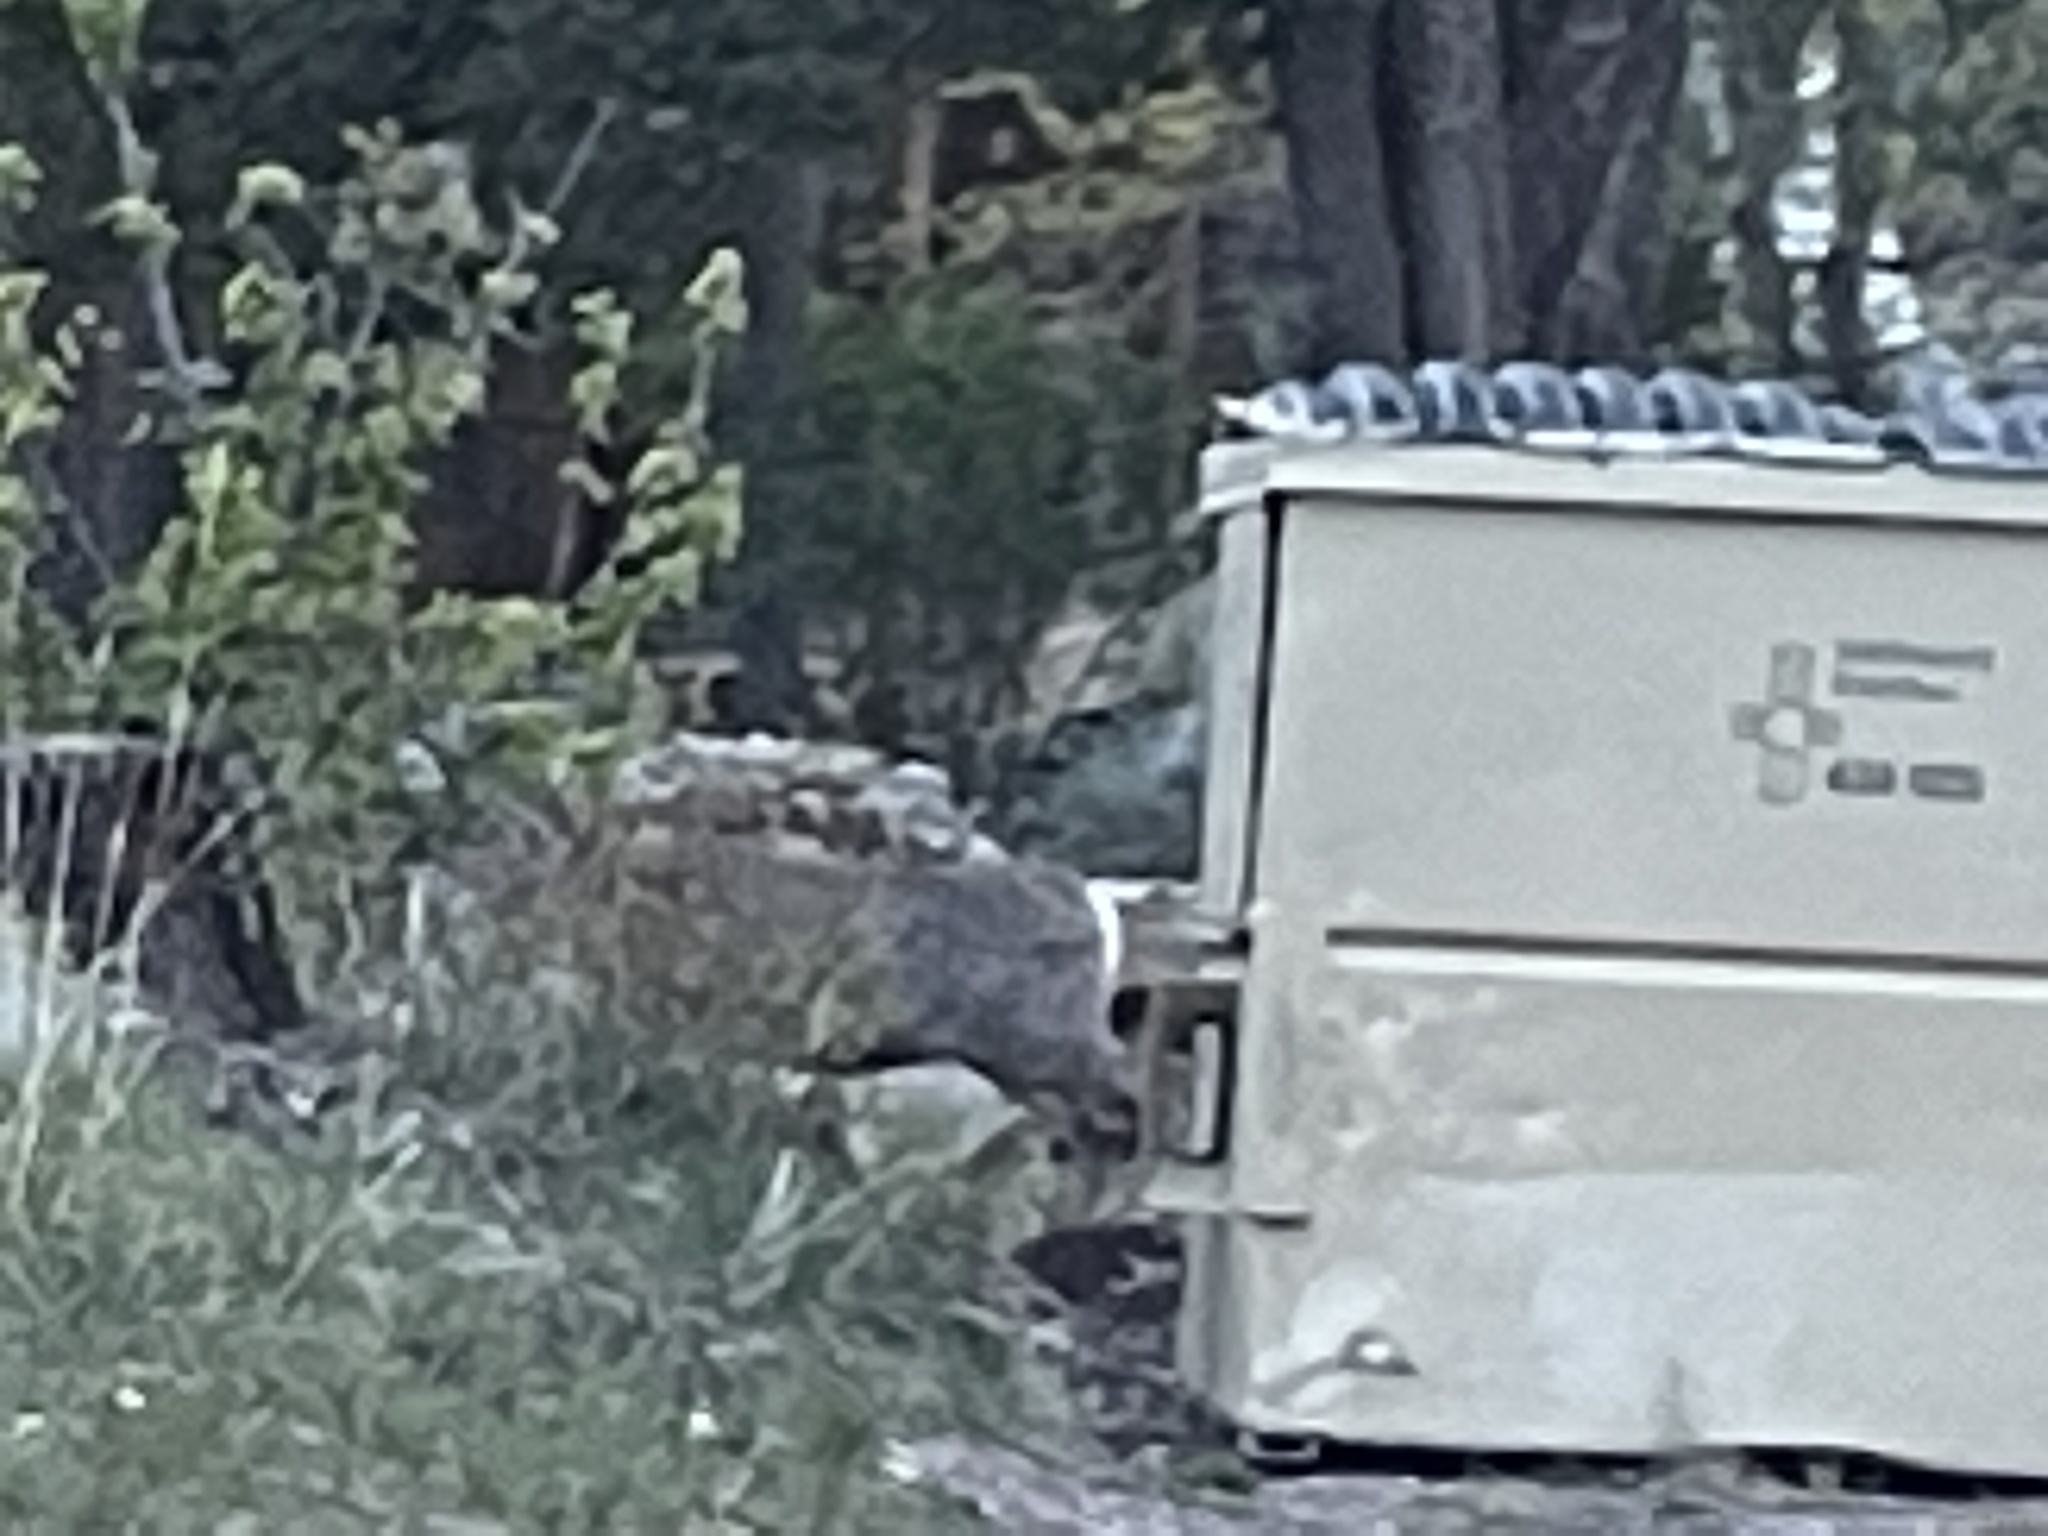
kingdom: Animalia
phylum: Chordata
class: Mammalia
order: Artiodactyla
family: Cervidae
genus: Odocoileus
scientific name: Odocoileus hemionus
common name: Mule deer
